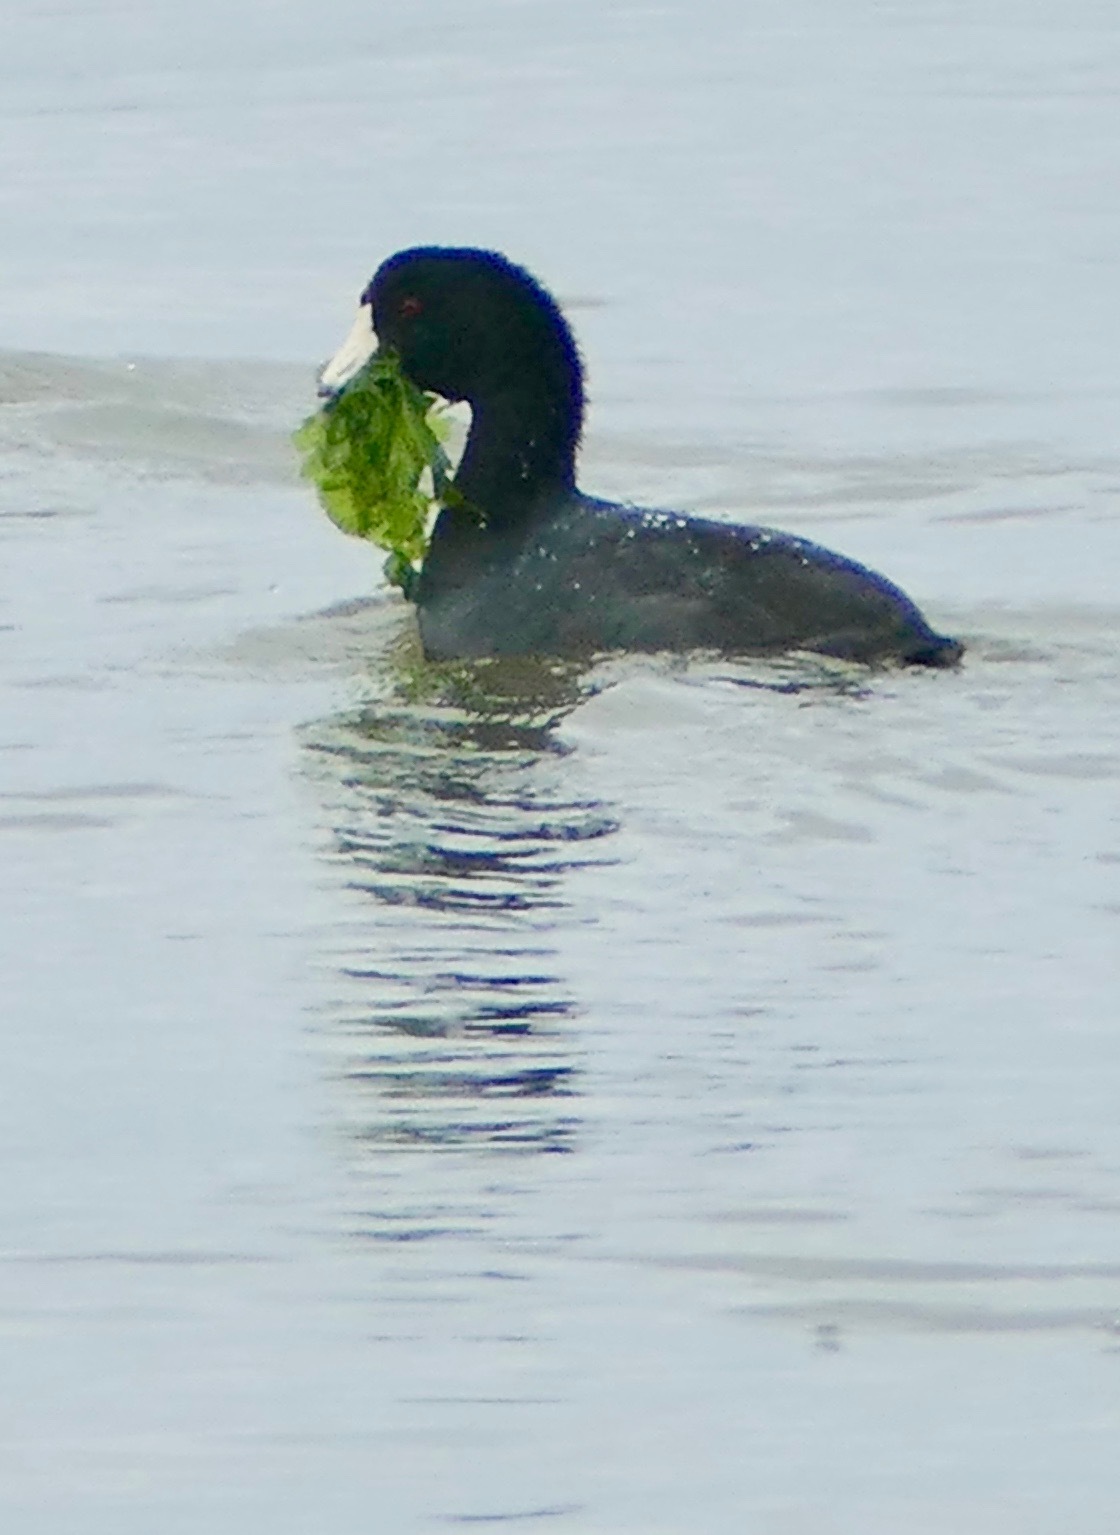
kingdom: Animalia
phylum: Chordata
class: Aves
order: Gruiformes
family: Rallidae
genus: Fulica
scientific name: Fulica americana
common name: American coot
